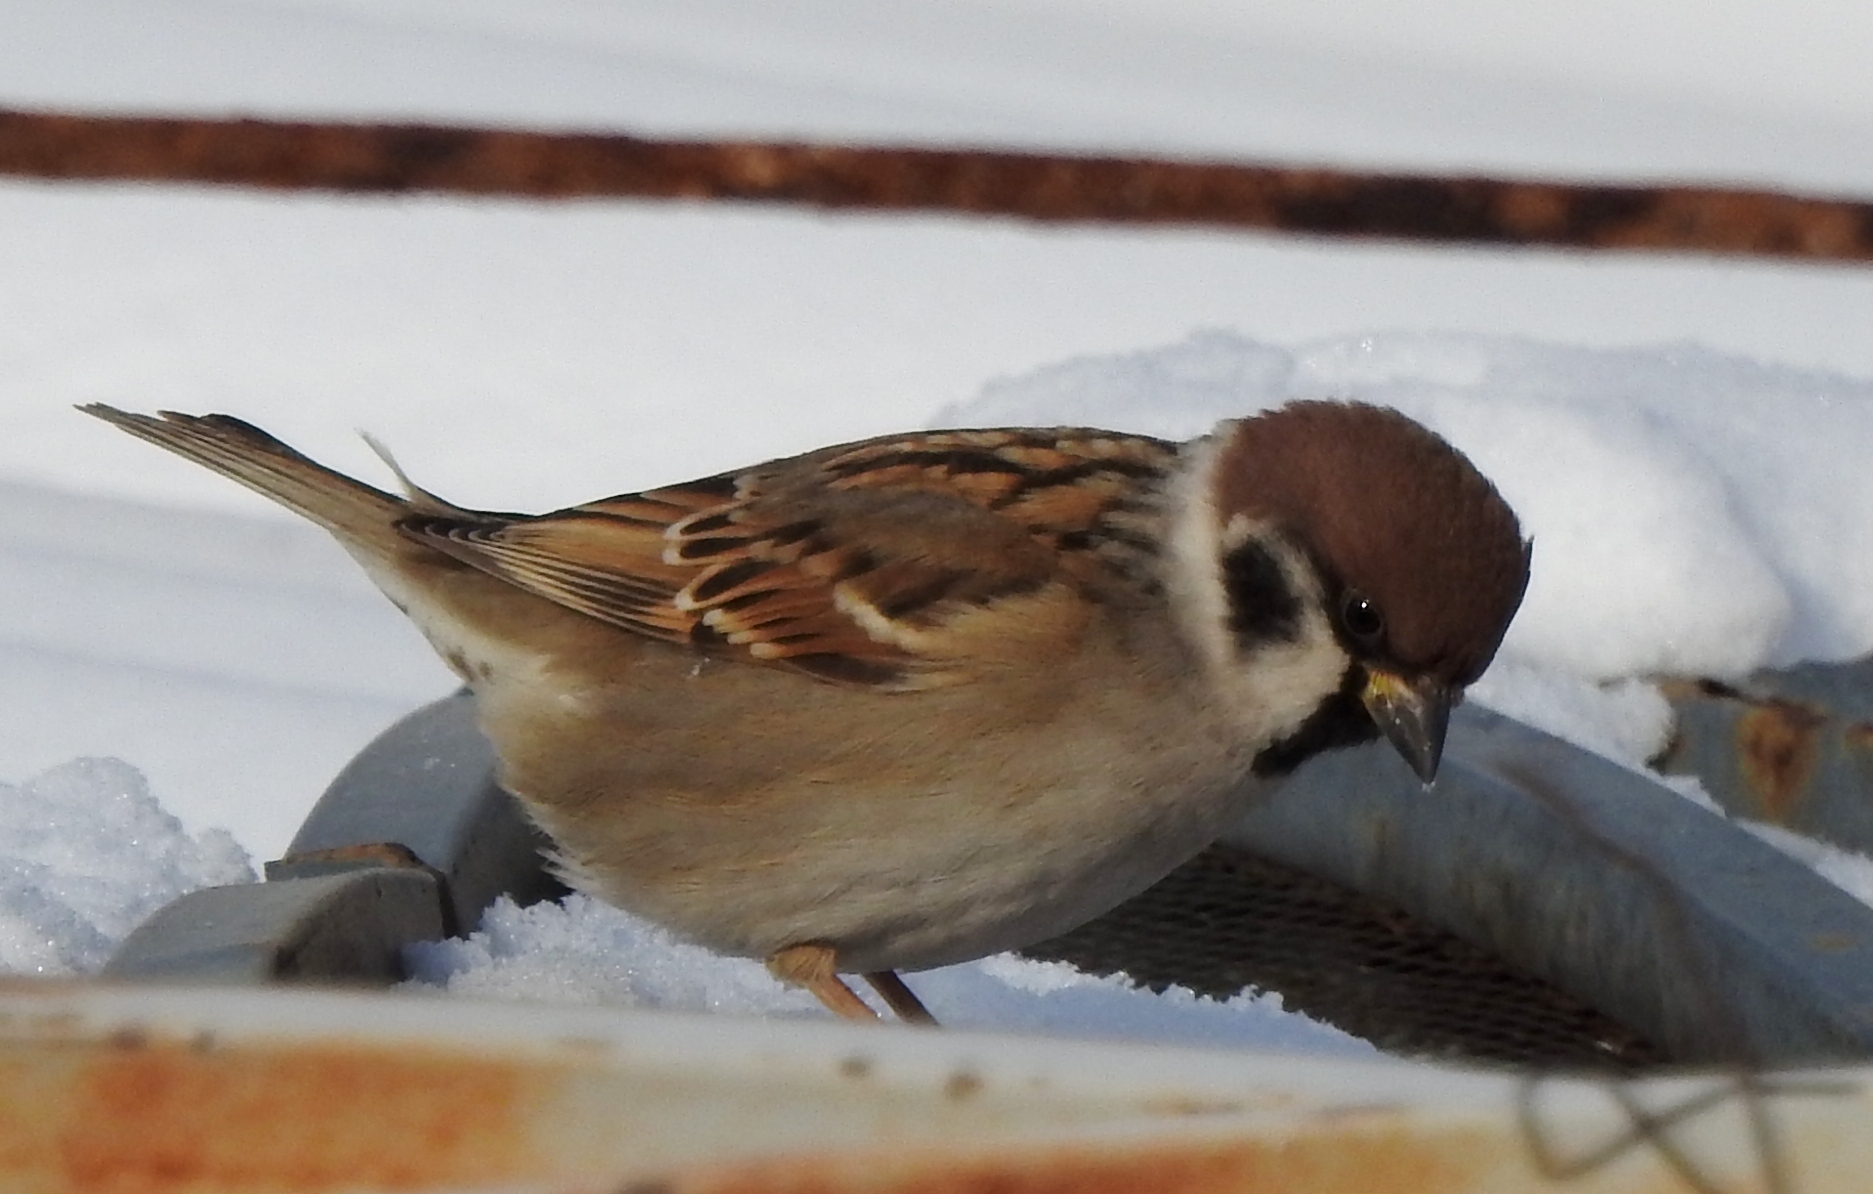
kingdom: Animalia
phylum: Chordata
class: Aves
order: Passeriformes
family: Passeridae
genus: Passer
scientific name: Passer montanus
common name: Eurasian tree sparrow
